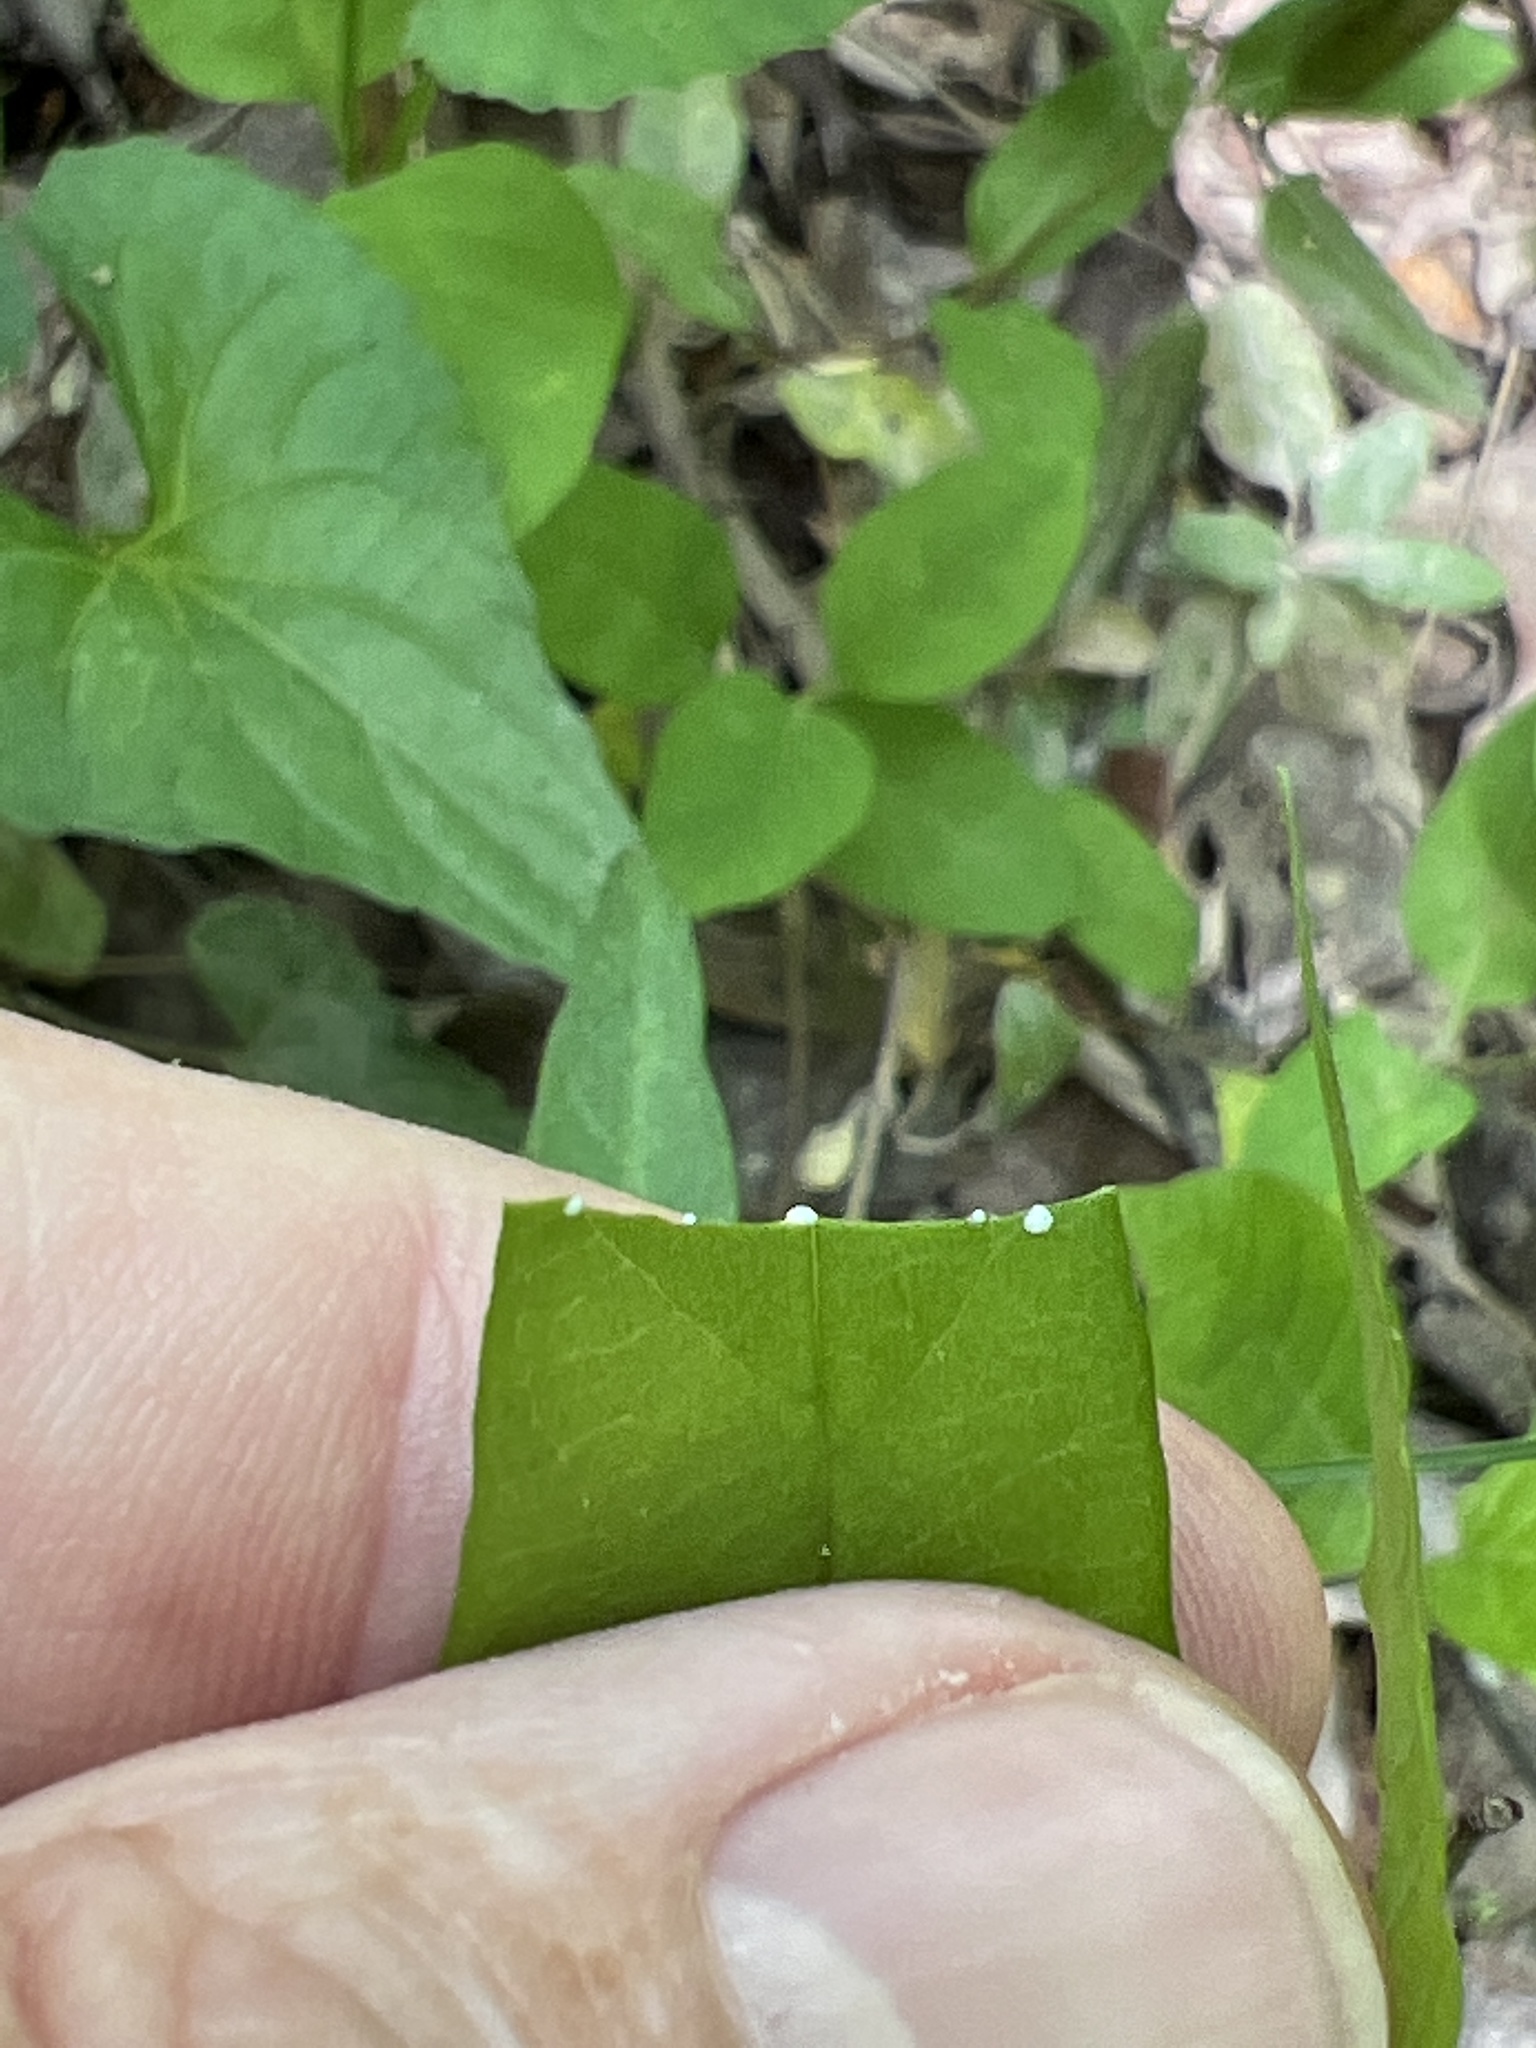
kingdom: Plantae
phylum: Tracheophyta
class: Magnoliopsida
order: Gentianales
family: Apocynaceae
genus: Thyrsanthella
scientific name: Thyrsanthella difformis
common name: Climbing dogbane
